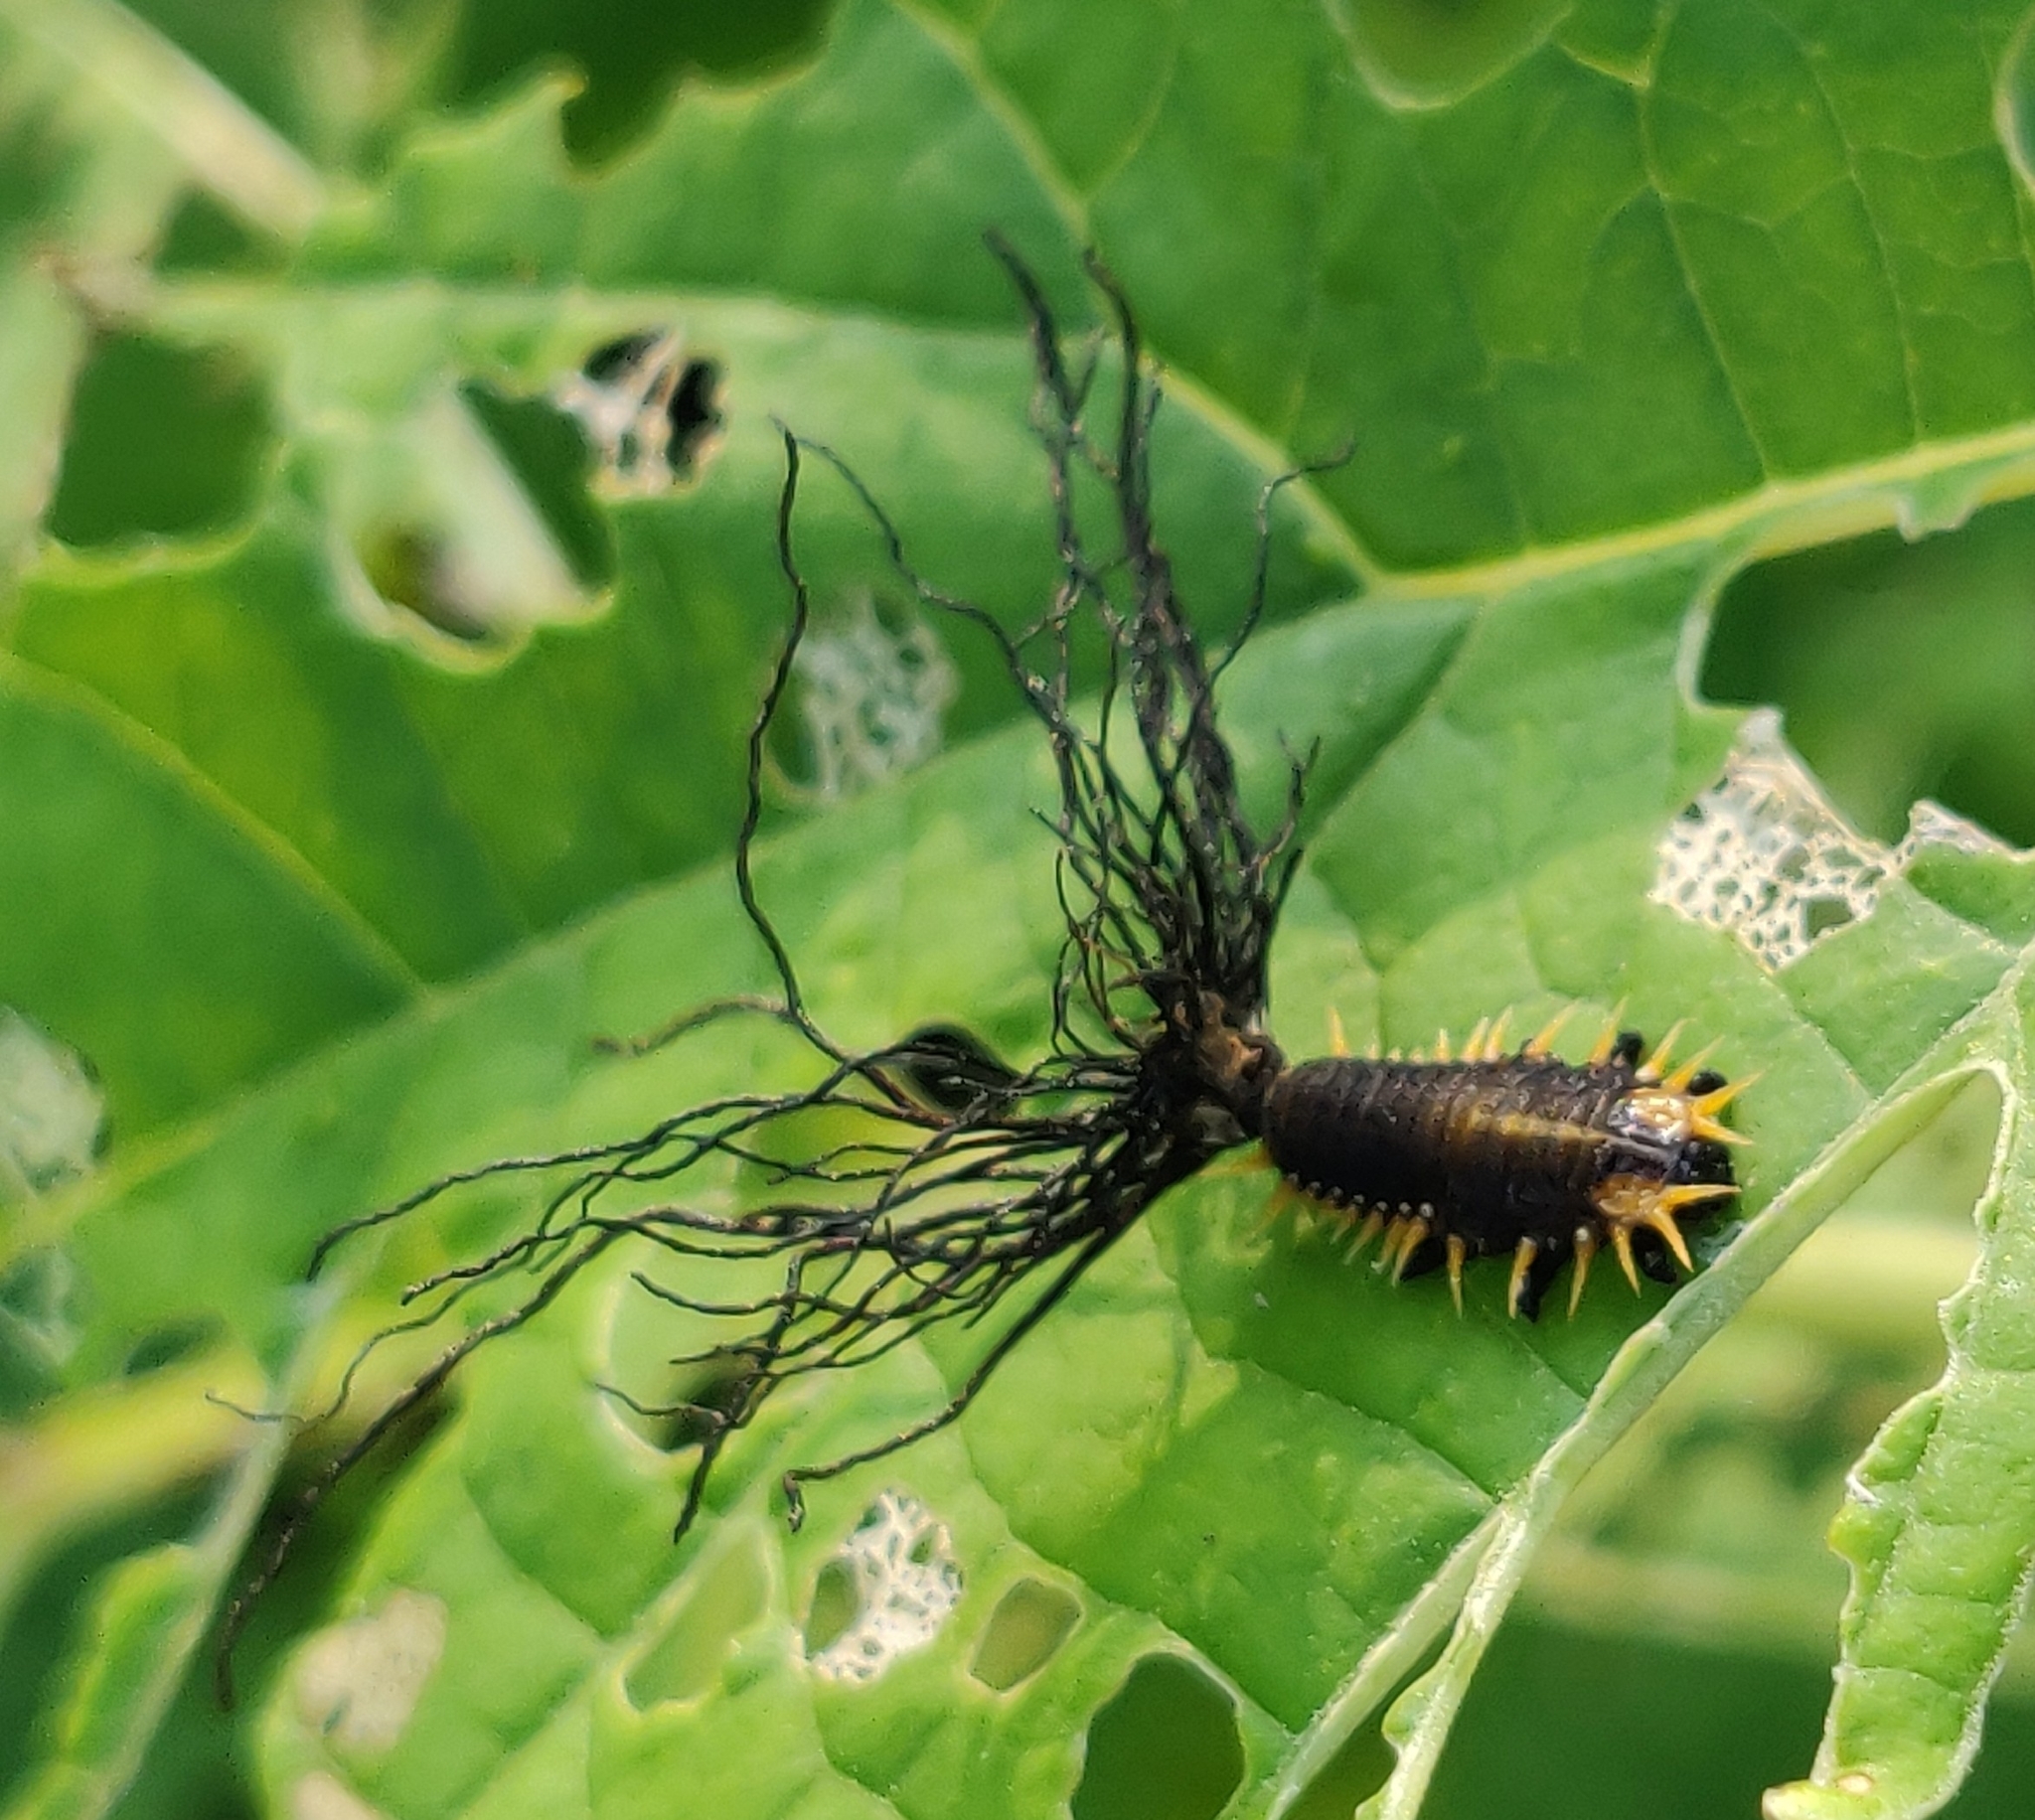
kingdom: Animalia
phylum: Arthropoda
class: Insecta
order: Coleoptera
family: Chrysomelidae
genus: Craspedonta
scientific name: Craspedonta leayana
